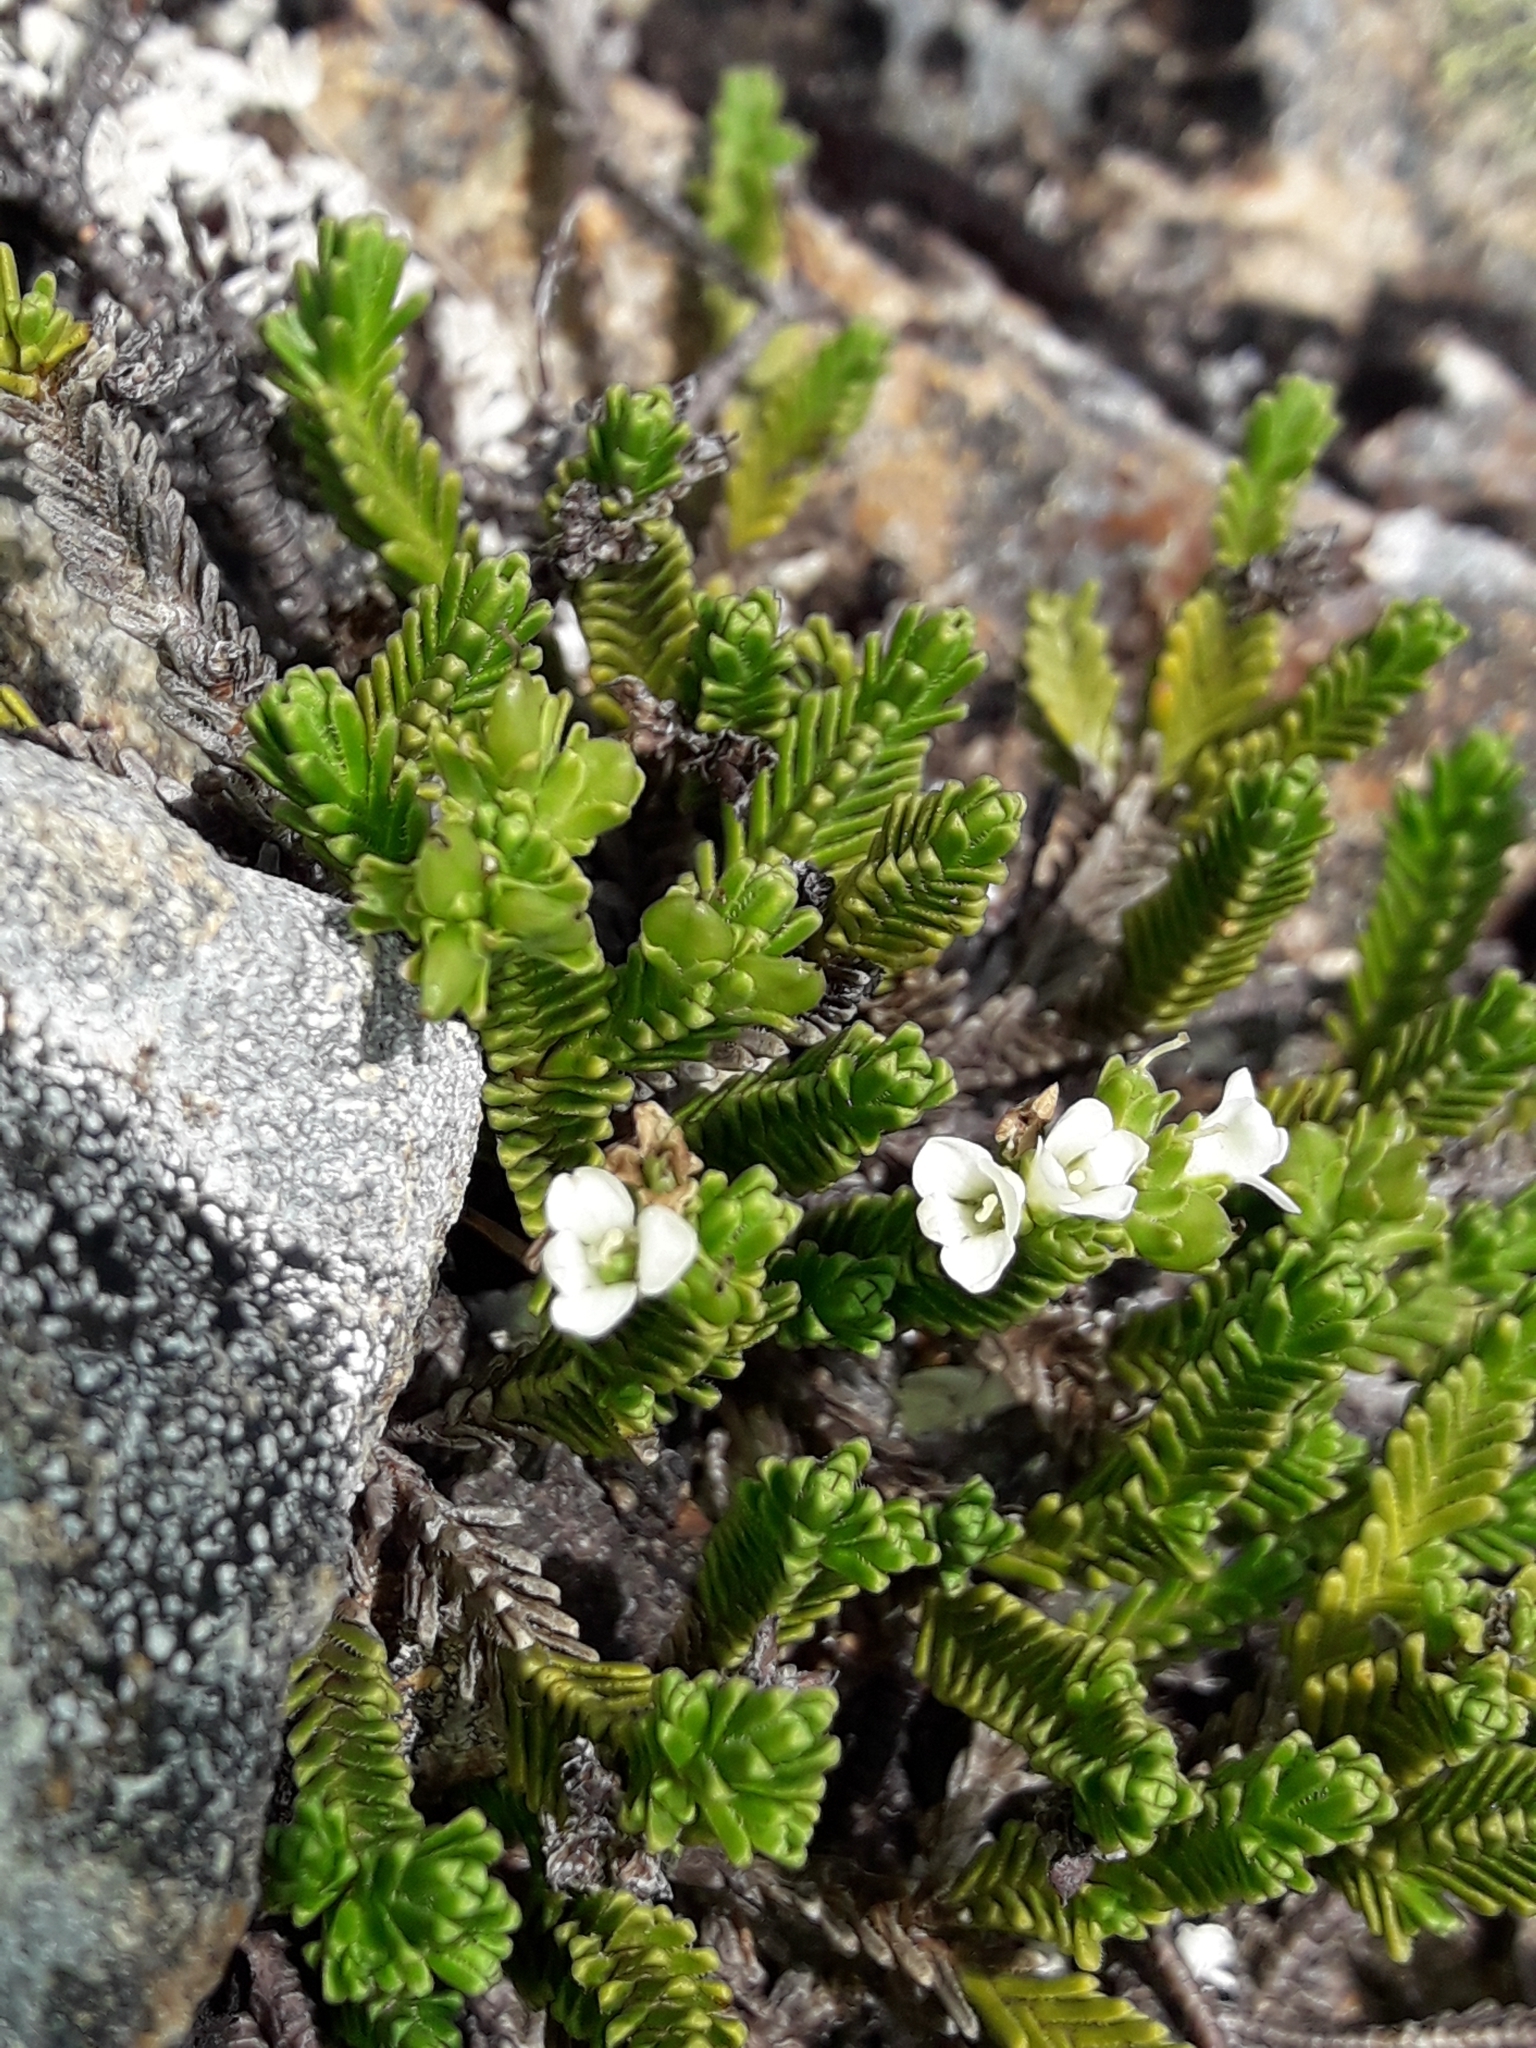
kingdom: Plantae
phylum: Tracheophyta
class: Magnoliopsida
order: Lamiales
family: Plantaginaceae
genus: Veronica
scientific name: Veronica hookeri
